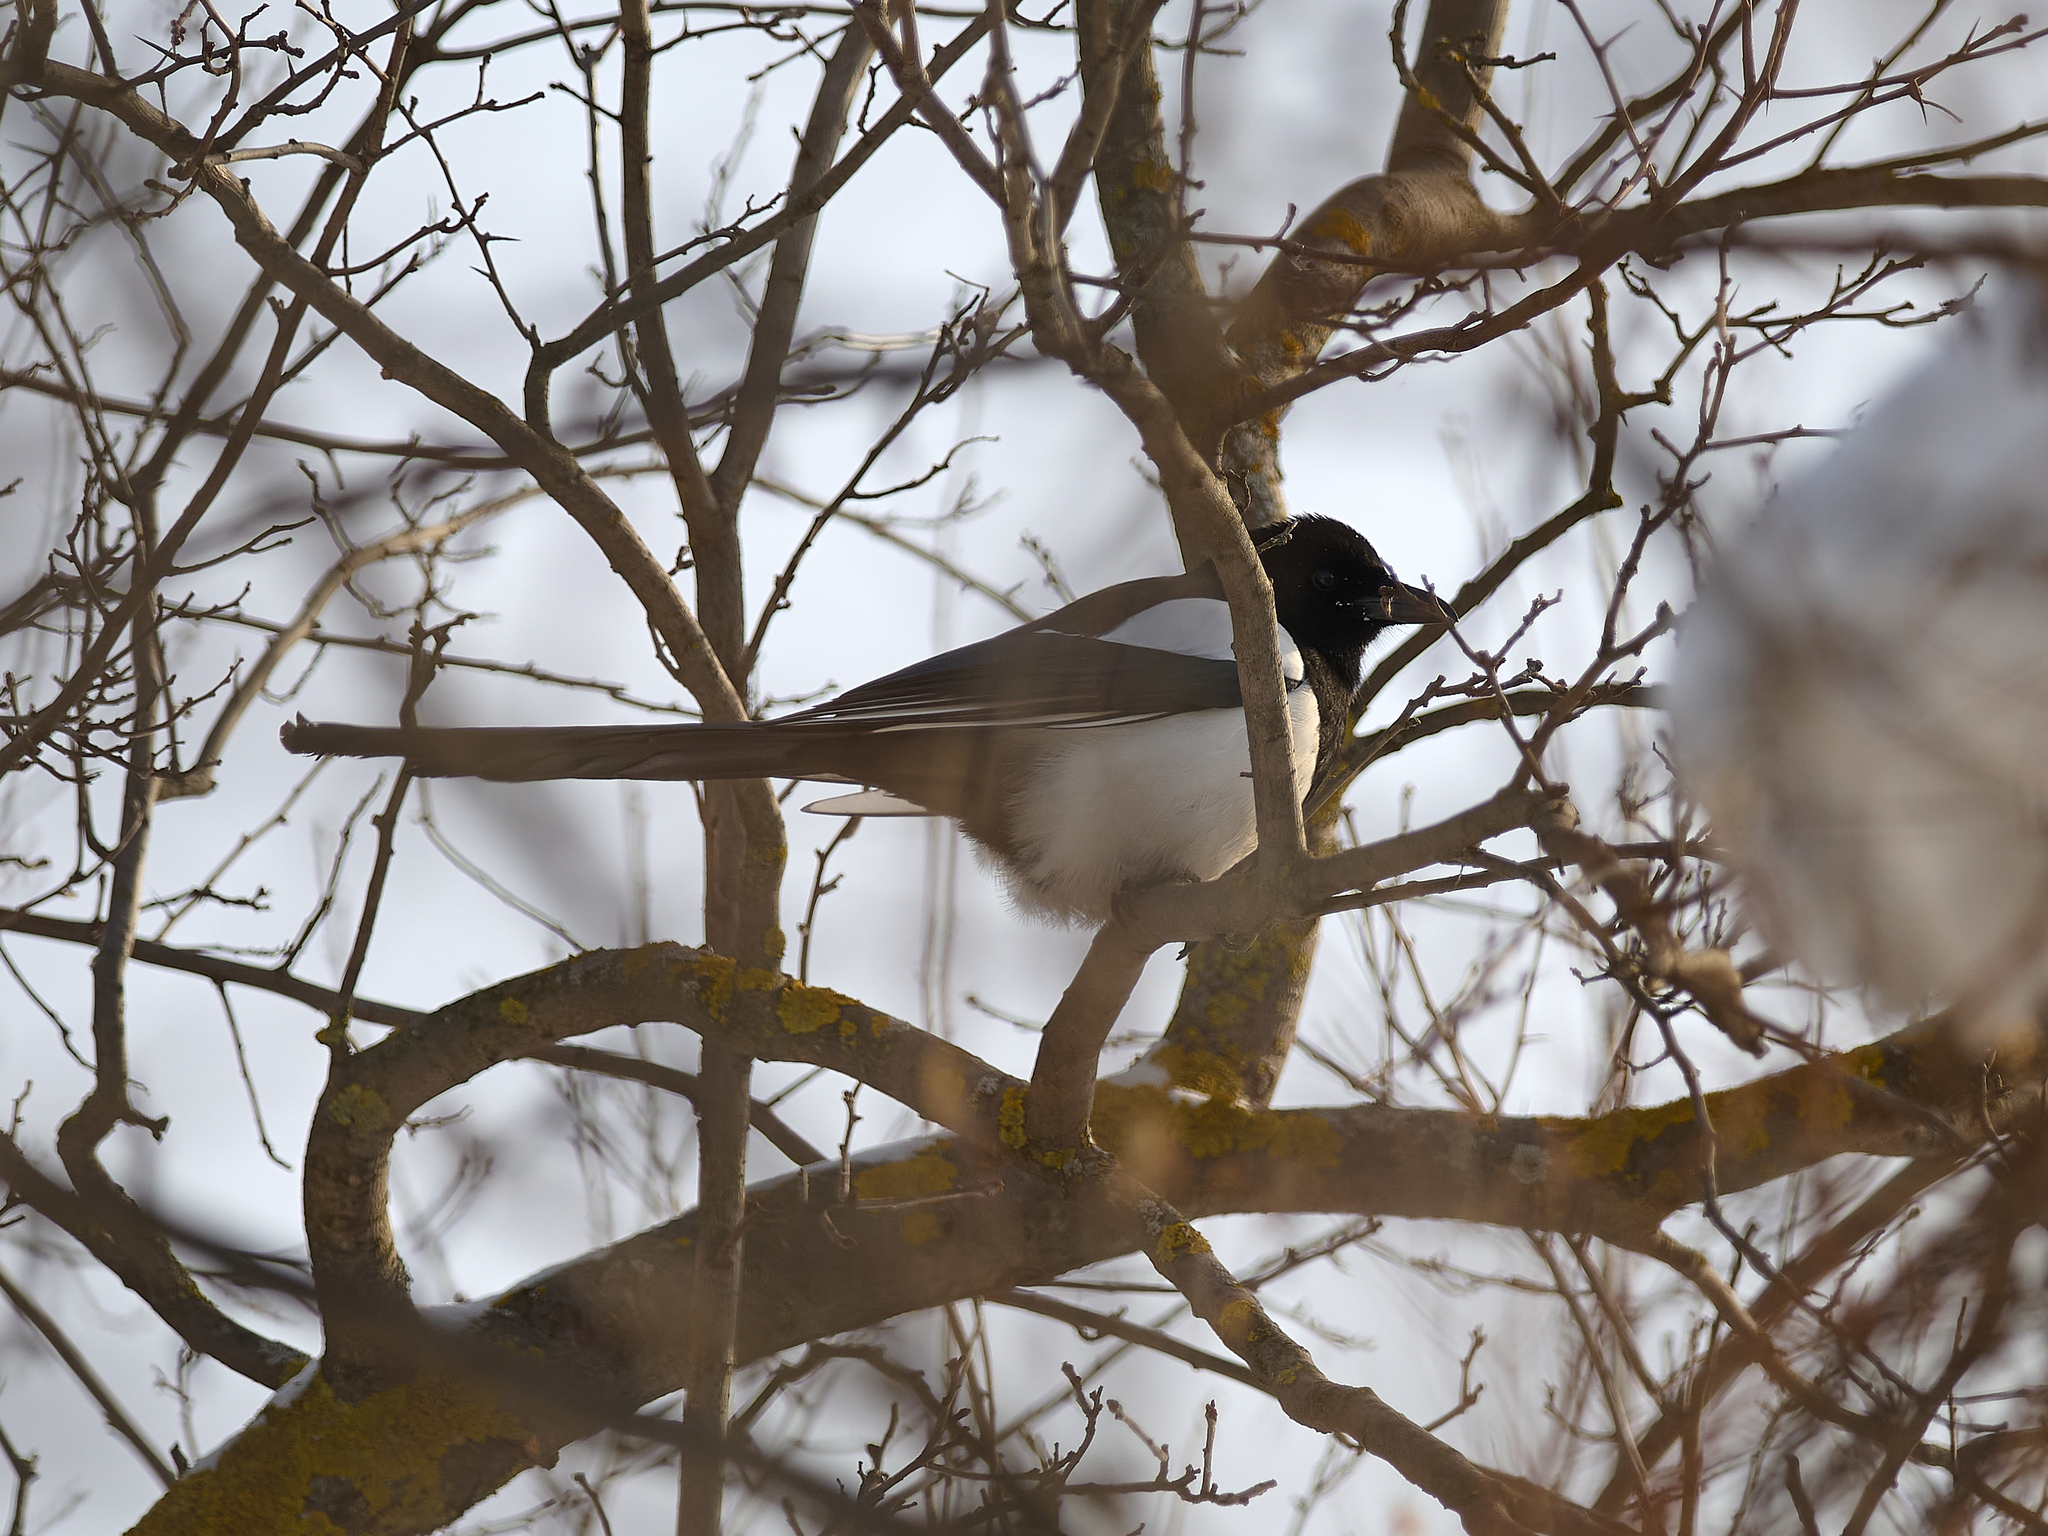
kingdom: Animalia
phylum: Chordata
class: Aves
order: Passeriformes
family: Corvidae
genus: Pica
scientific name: Pica pica
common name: Eurasian magpie
